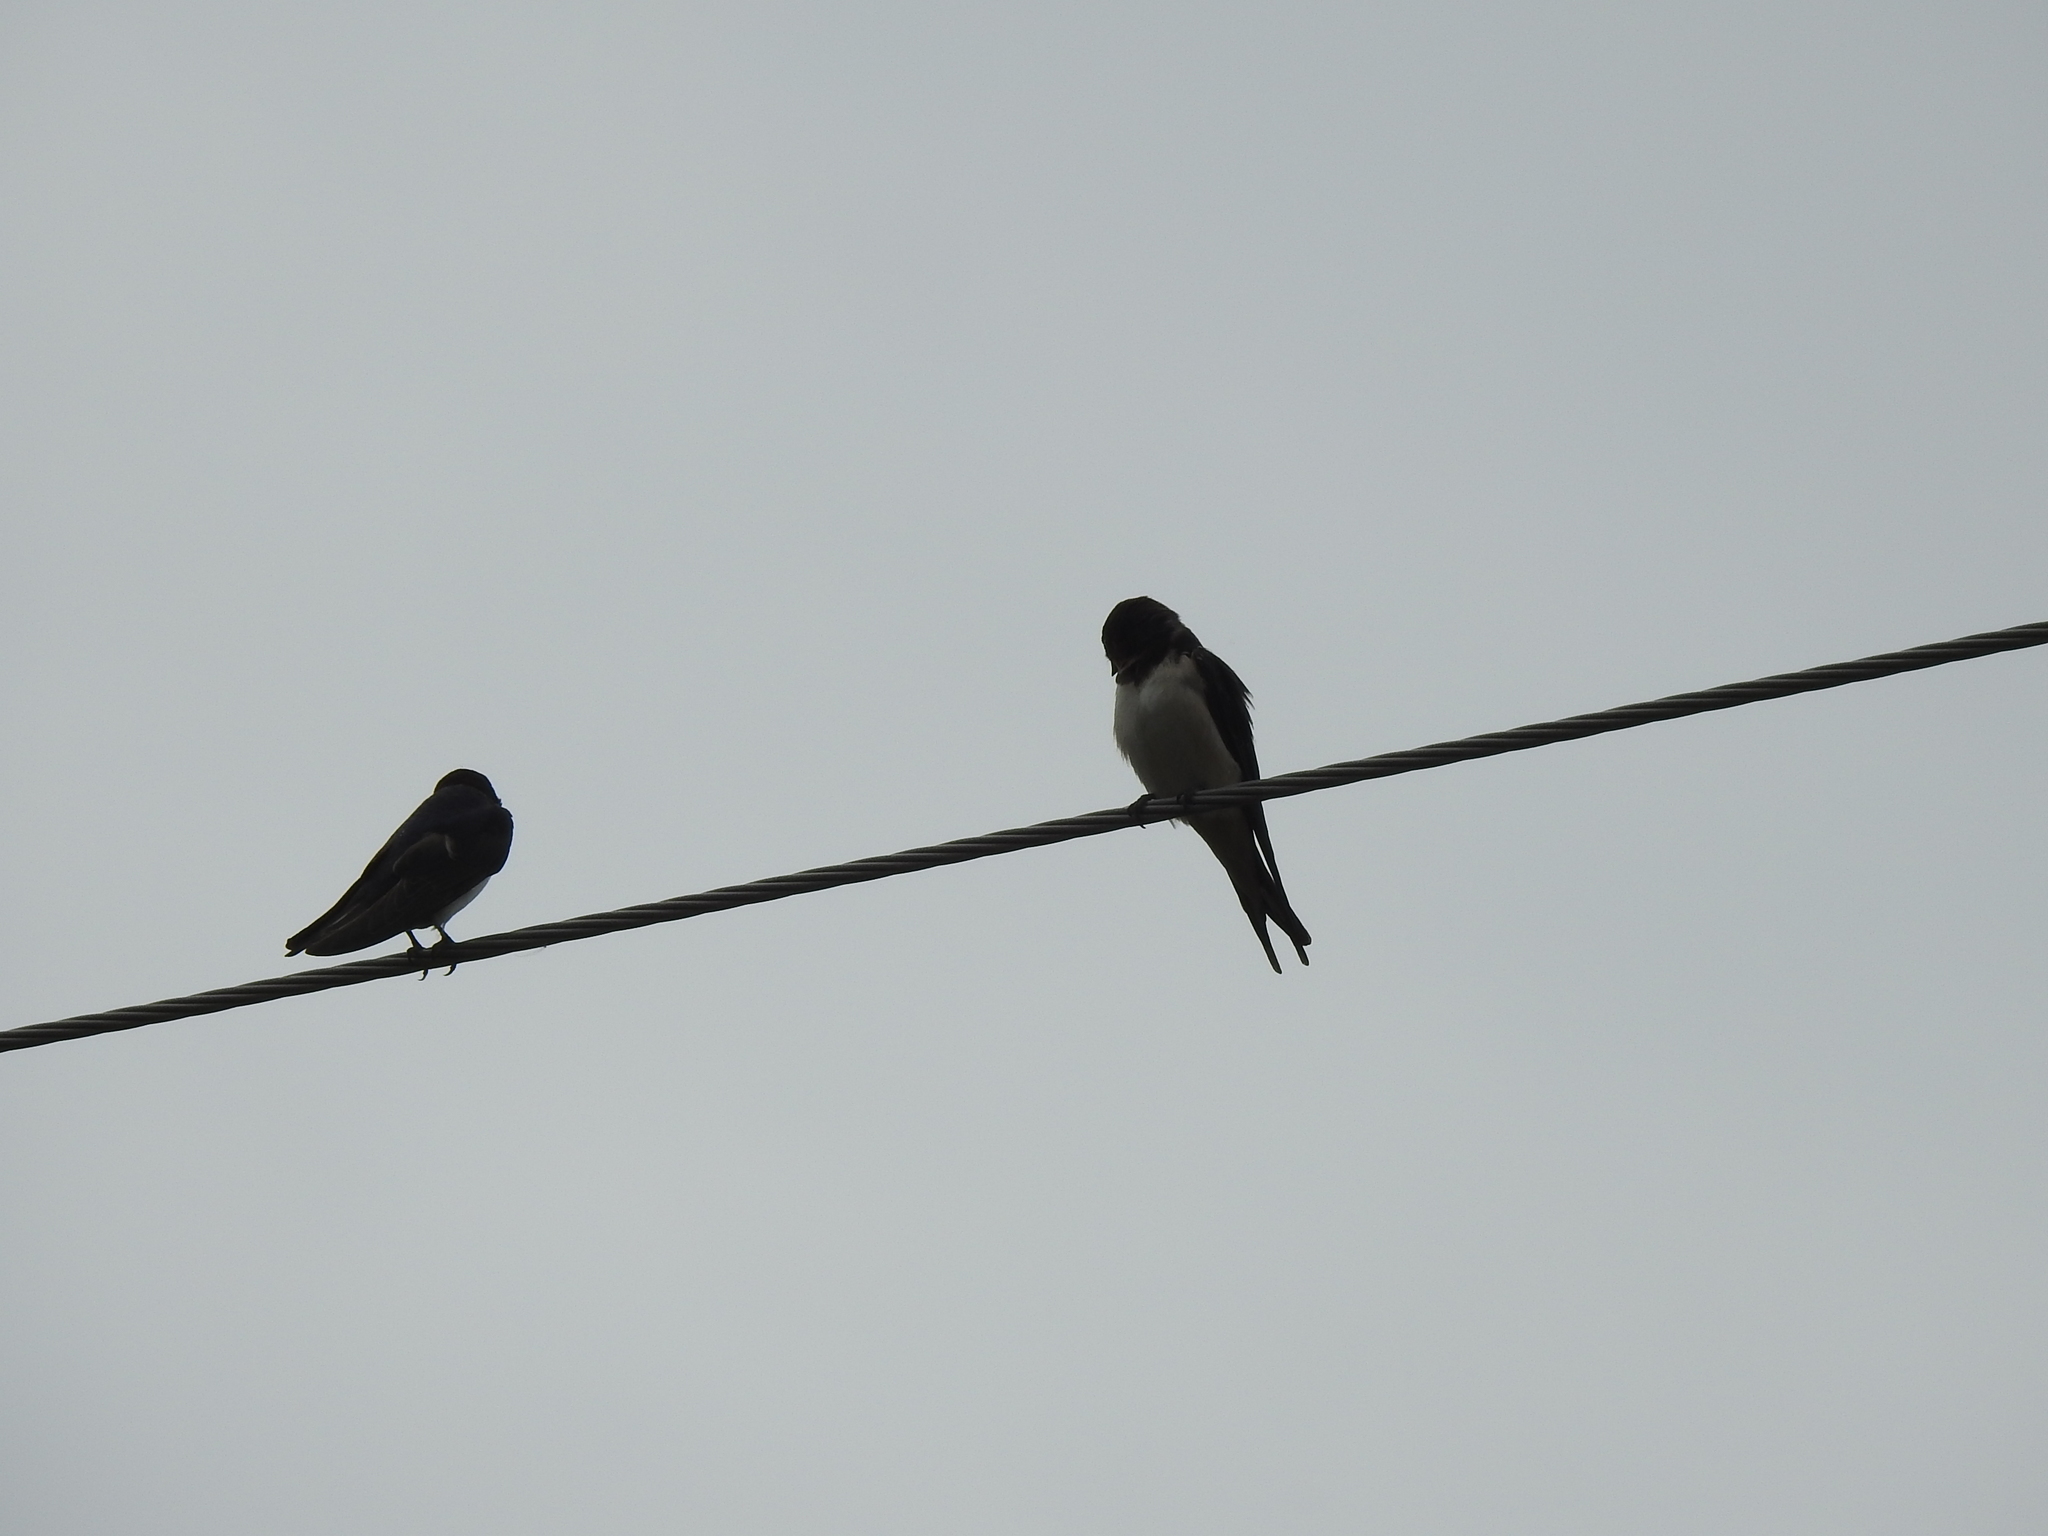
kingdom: Animalia
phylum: Chordata
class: Aves
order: Passeriformes
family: Hirundinidae
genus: Hirundo
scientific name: Hirundo rustica
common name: Barn swallow
